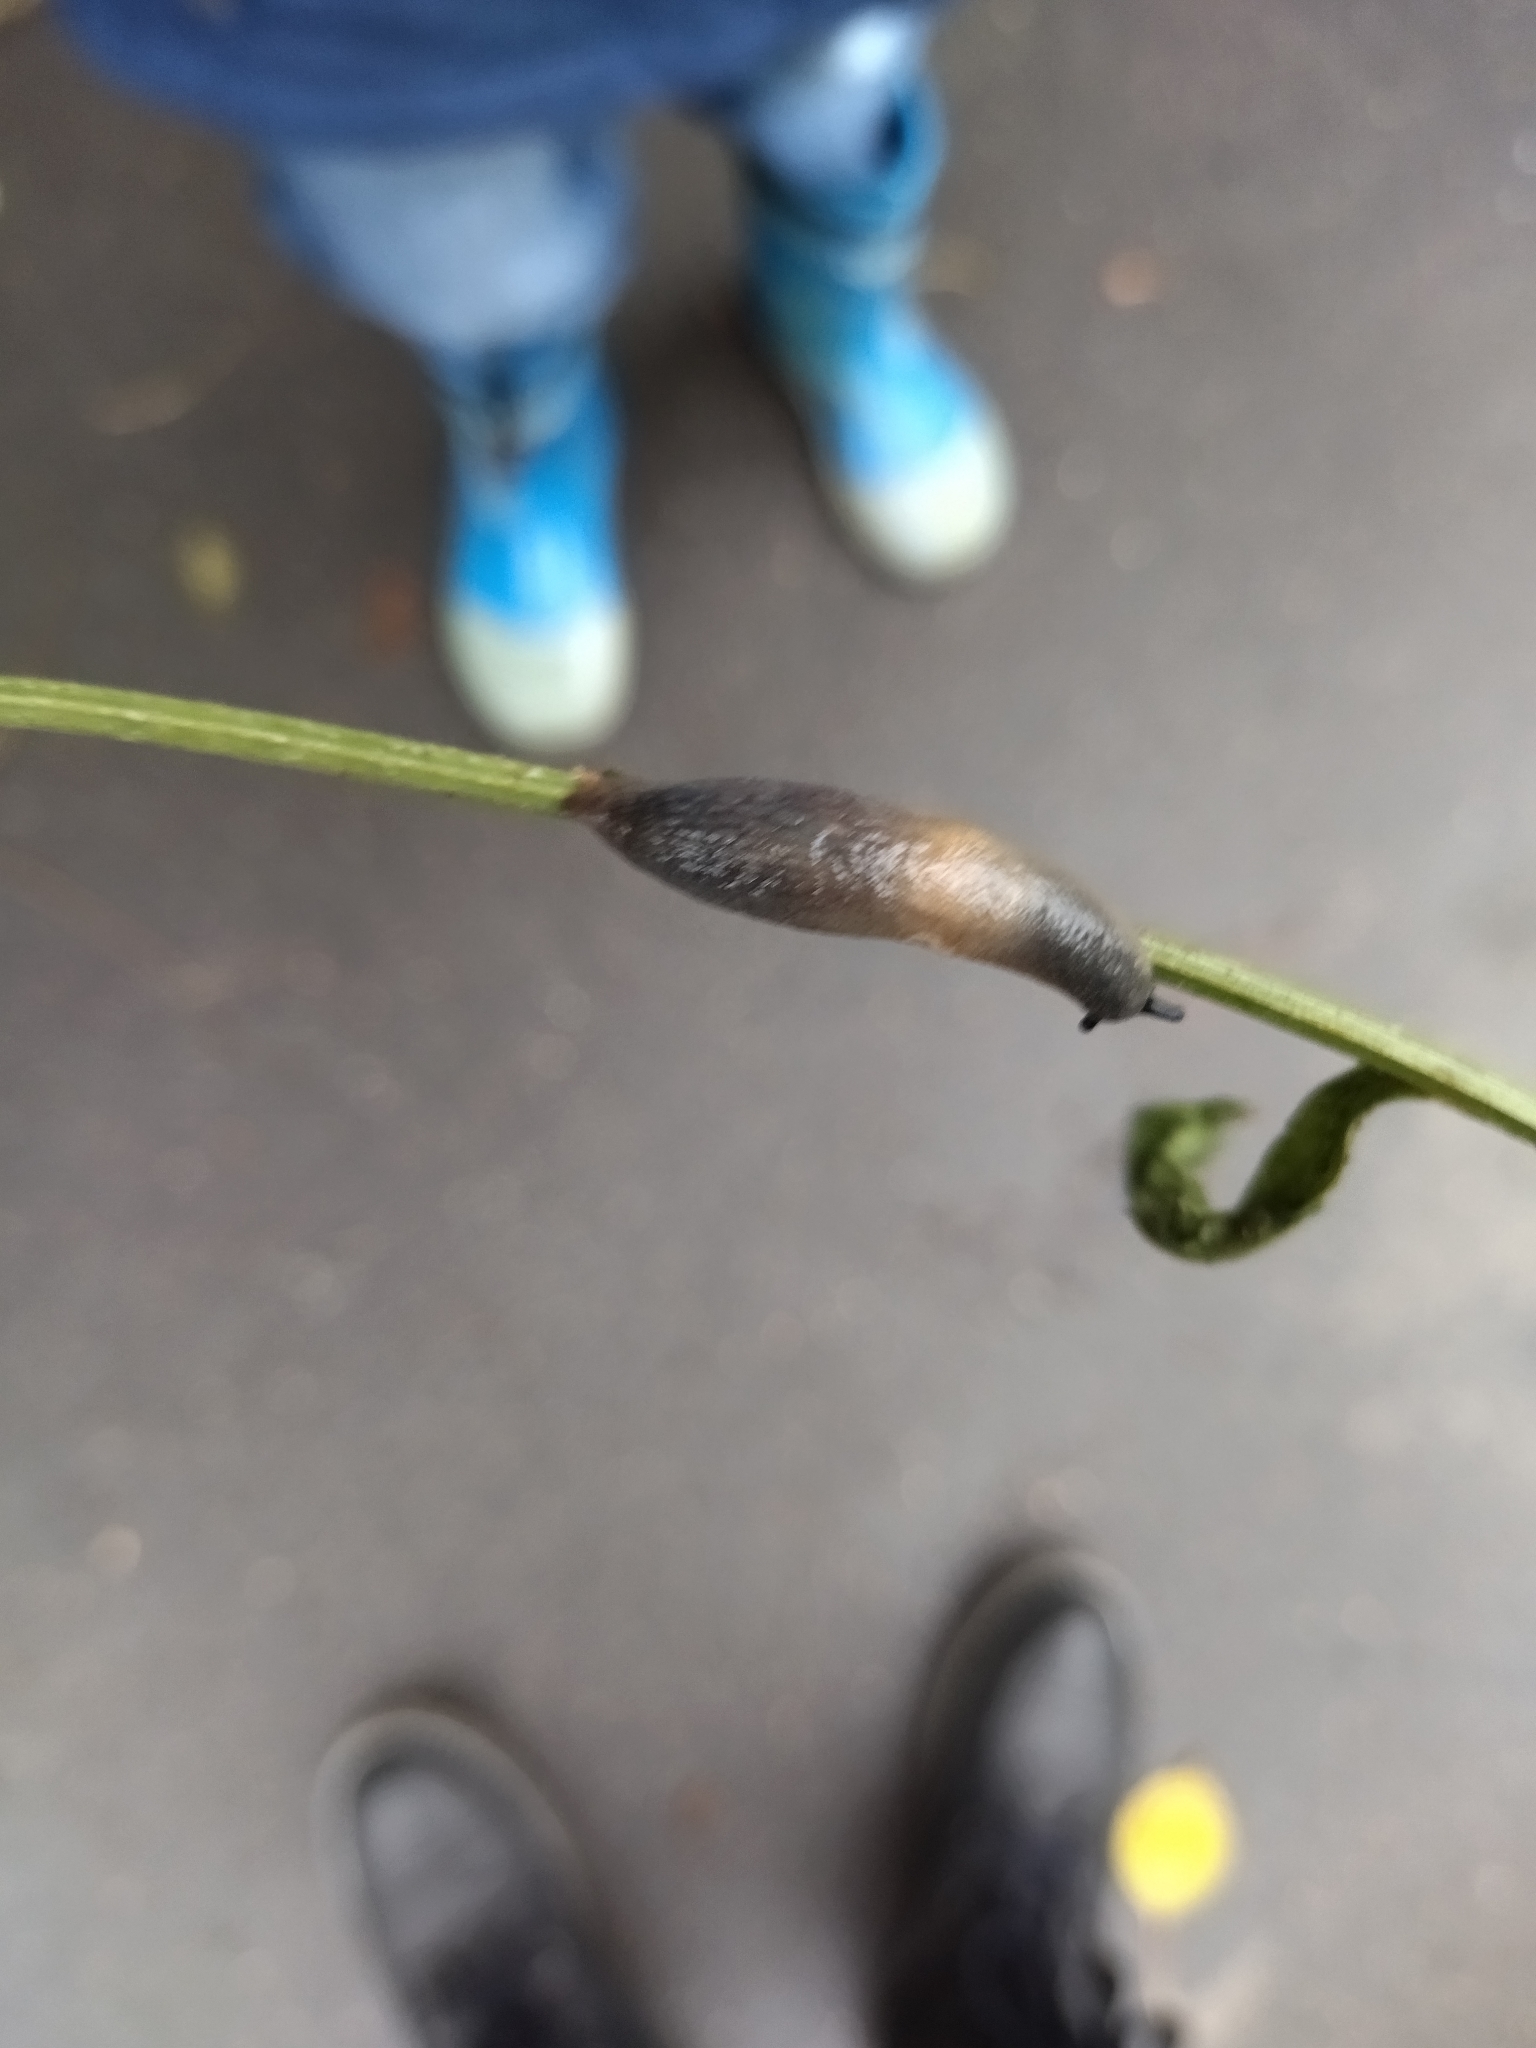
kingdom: Animalia
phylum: Mollusca
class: Gastropoda
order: Stylommatophora
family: Agriolimacidae
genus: Krynickillus
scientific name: Krynickillus melanocephalus
